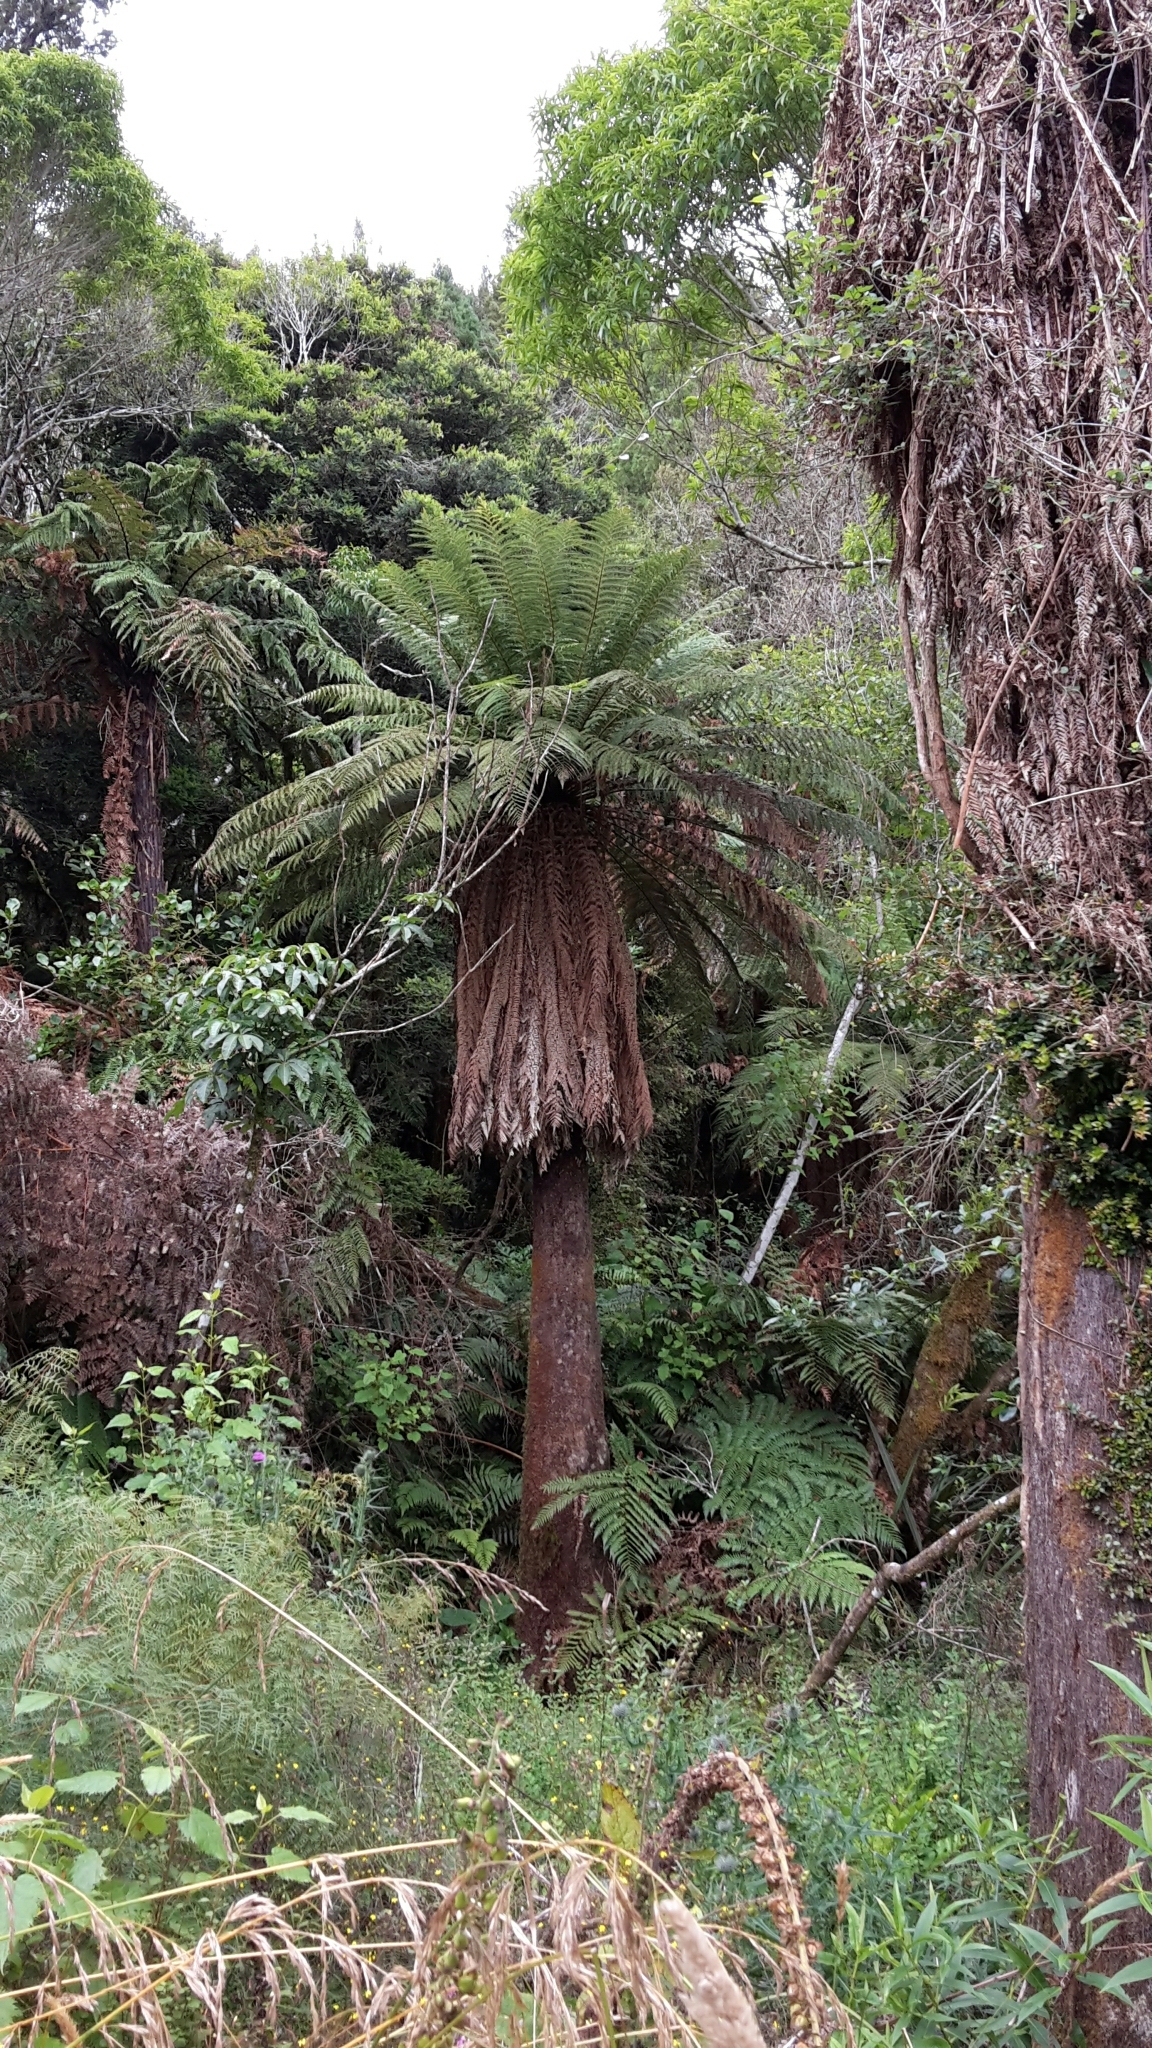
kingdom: Plantae
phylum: Tracheophyta
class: Polypodiopsida
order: Cyatheales
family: Dicksoniaceae
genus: Dicksonia
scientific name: Dicksonia fibrosa
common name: Golden tree fern
